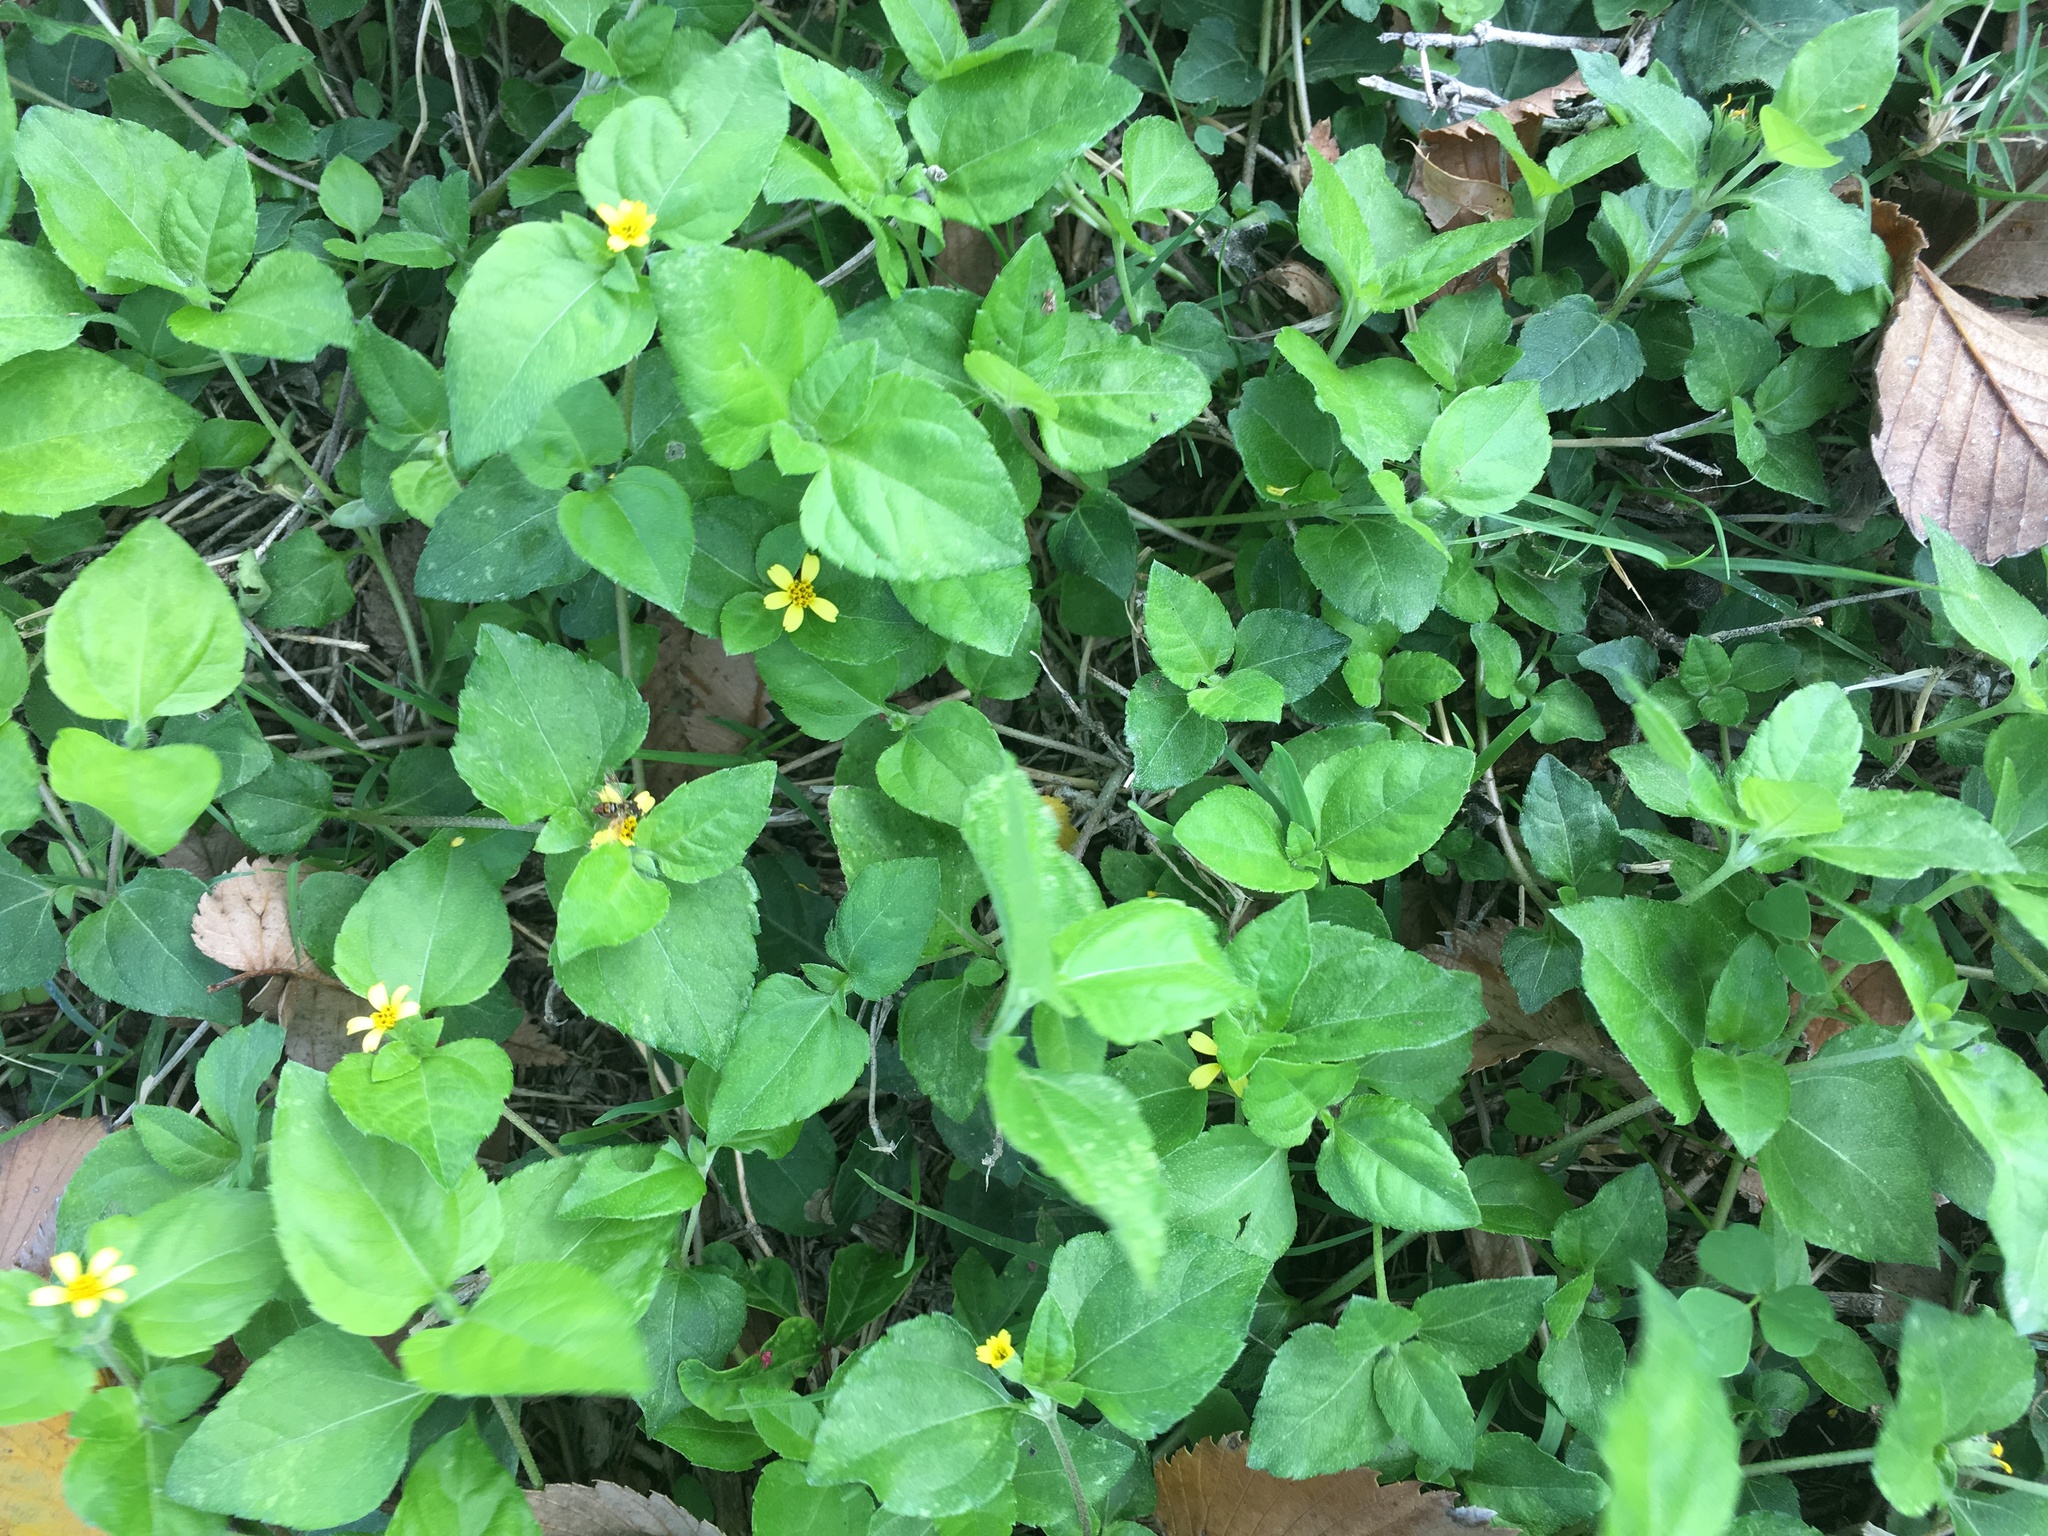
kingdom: Plantae
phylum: Tracheophyta
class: Magnoliopsida
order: Asterales
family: Asteraceae
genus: Calyptocarpus
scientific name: Calyptocarpus vialis
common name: Straggler daisy
